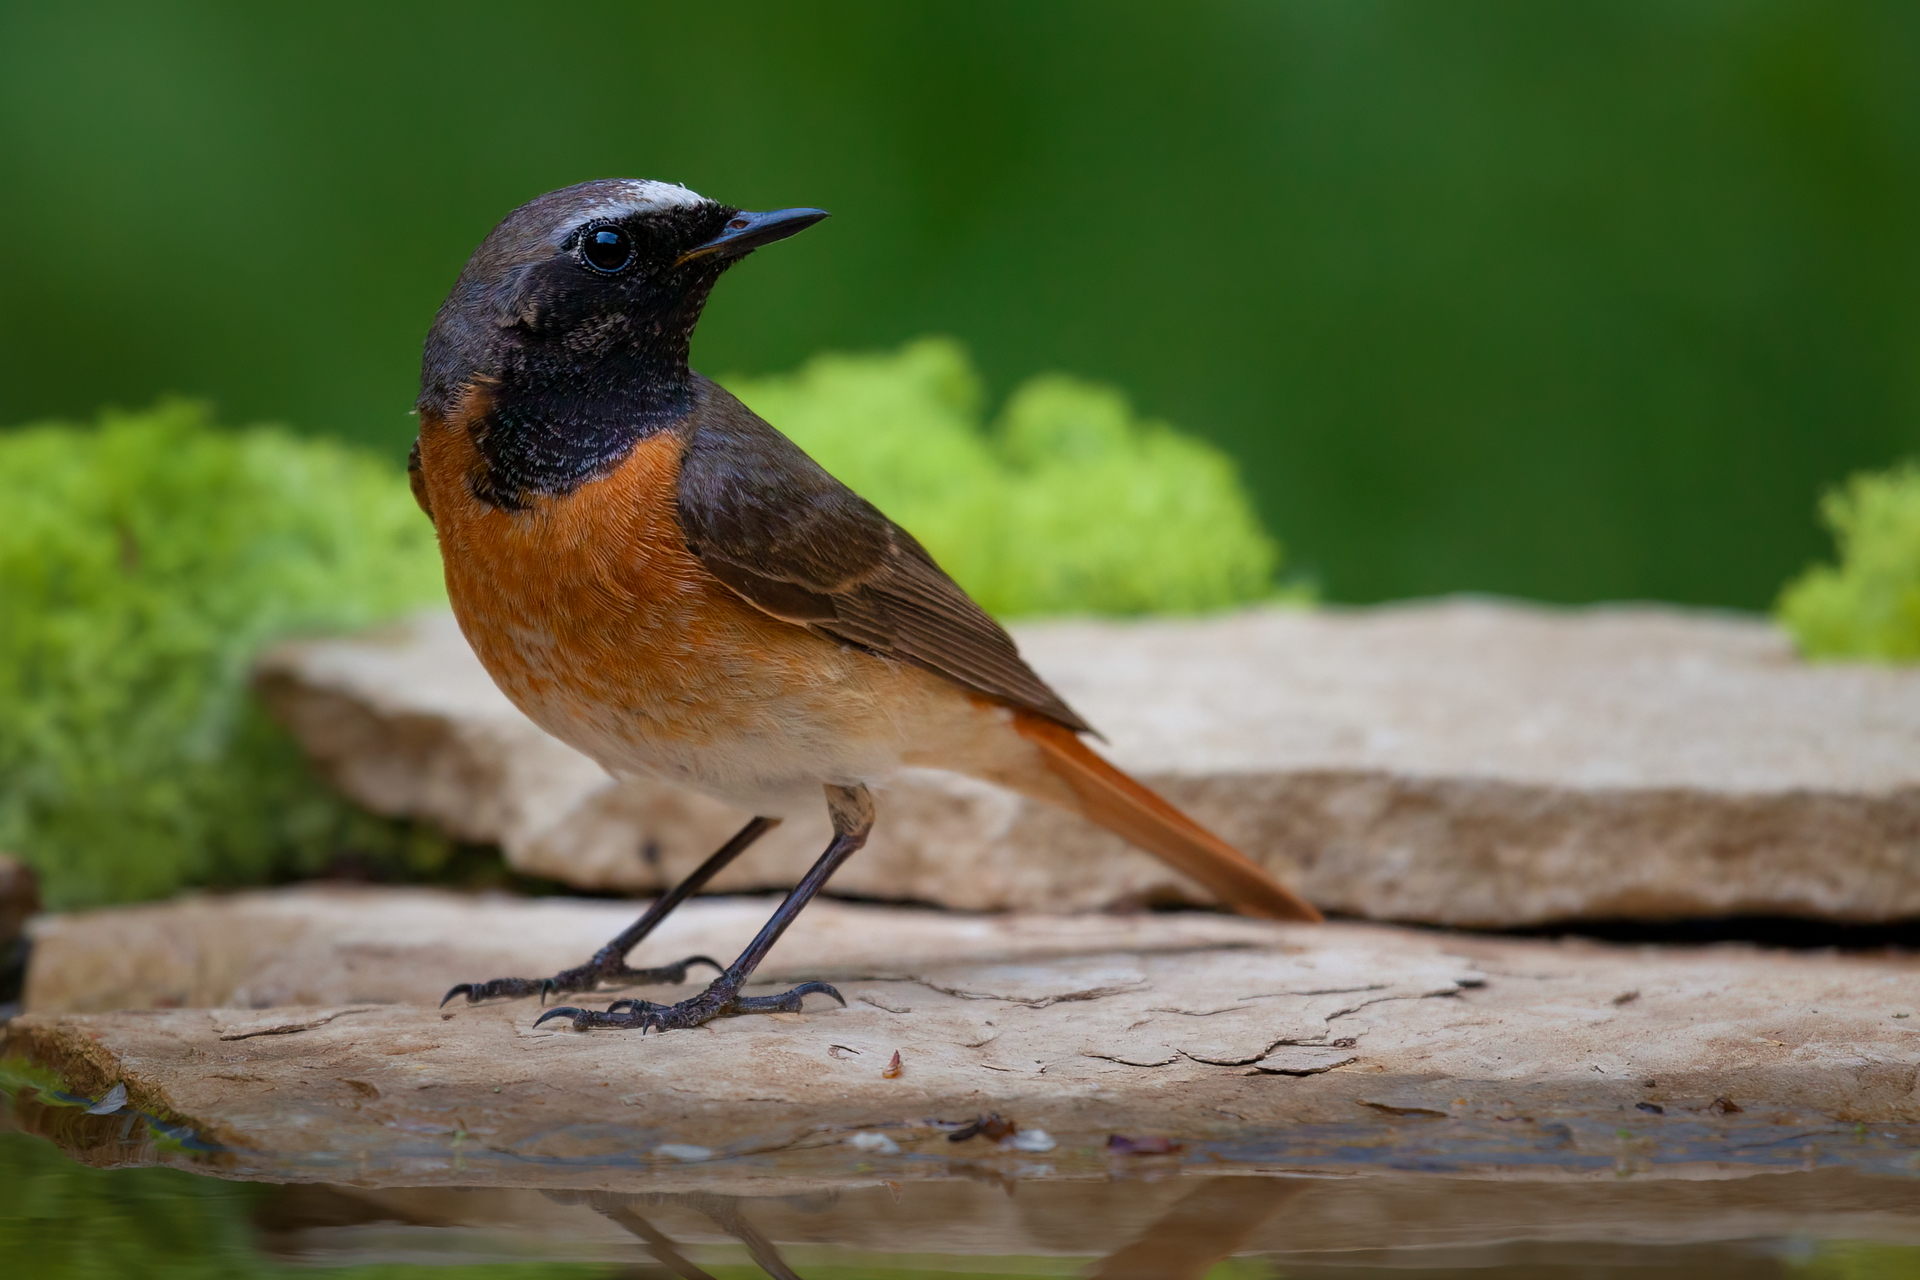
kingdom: Animalia
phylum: Chordata
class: Aves
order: Passeriformes
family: Muscicapidae
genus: Phoenicurus
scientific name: Phoenicurus phoenicurus
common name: Common redstart
